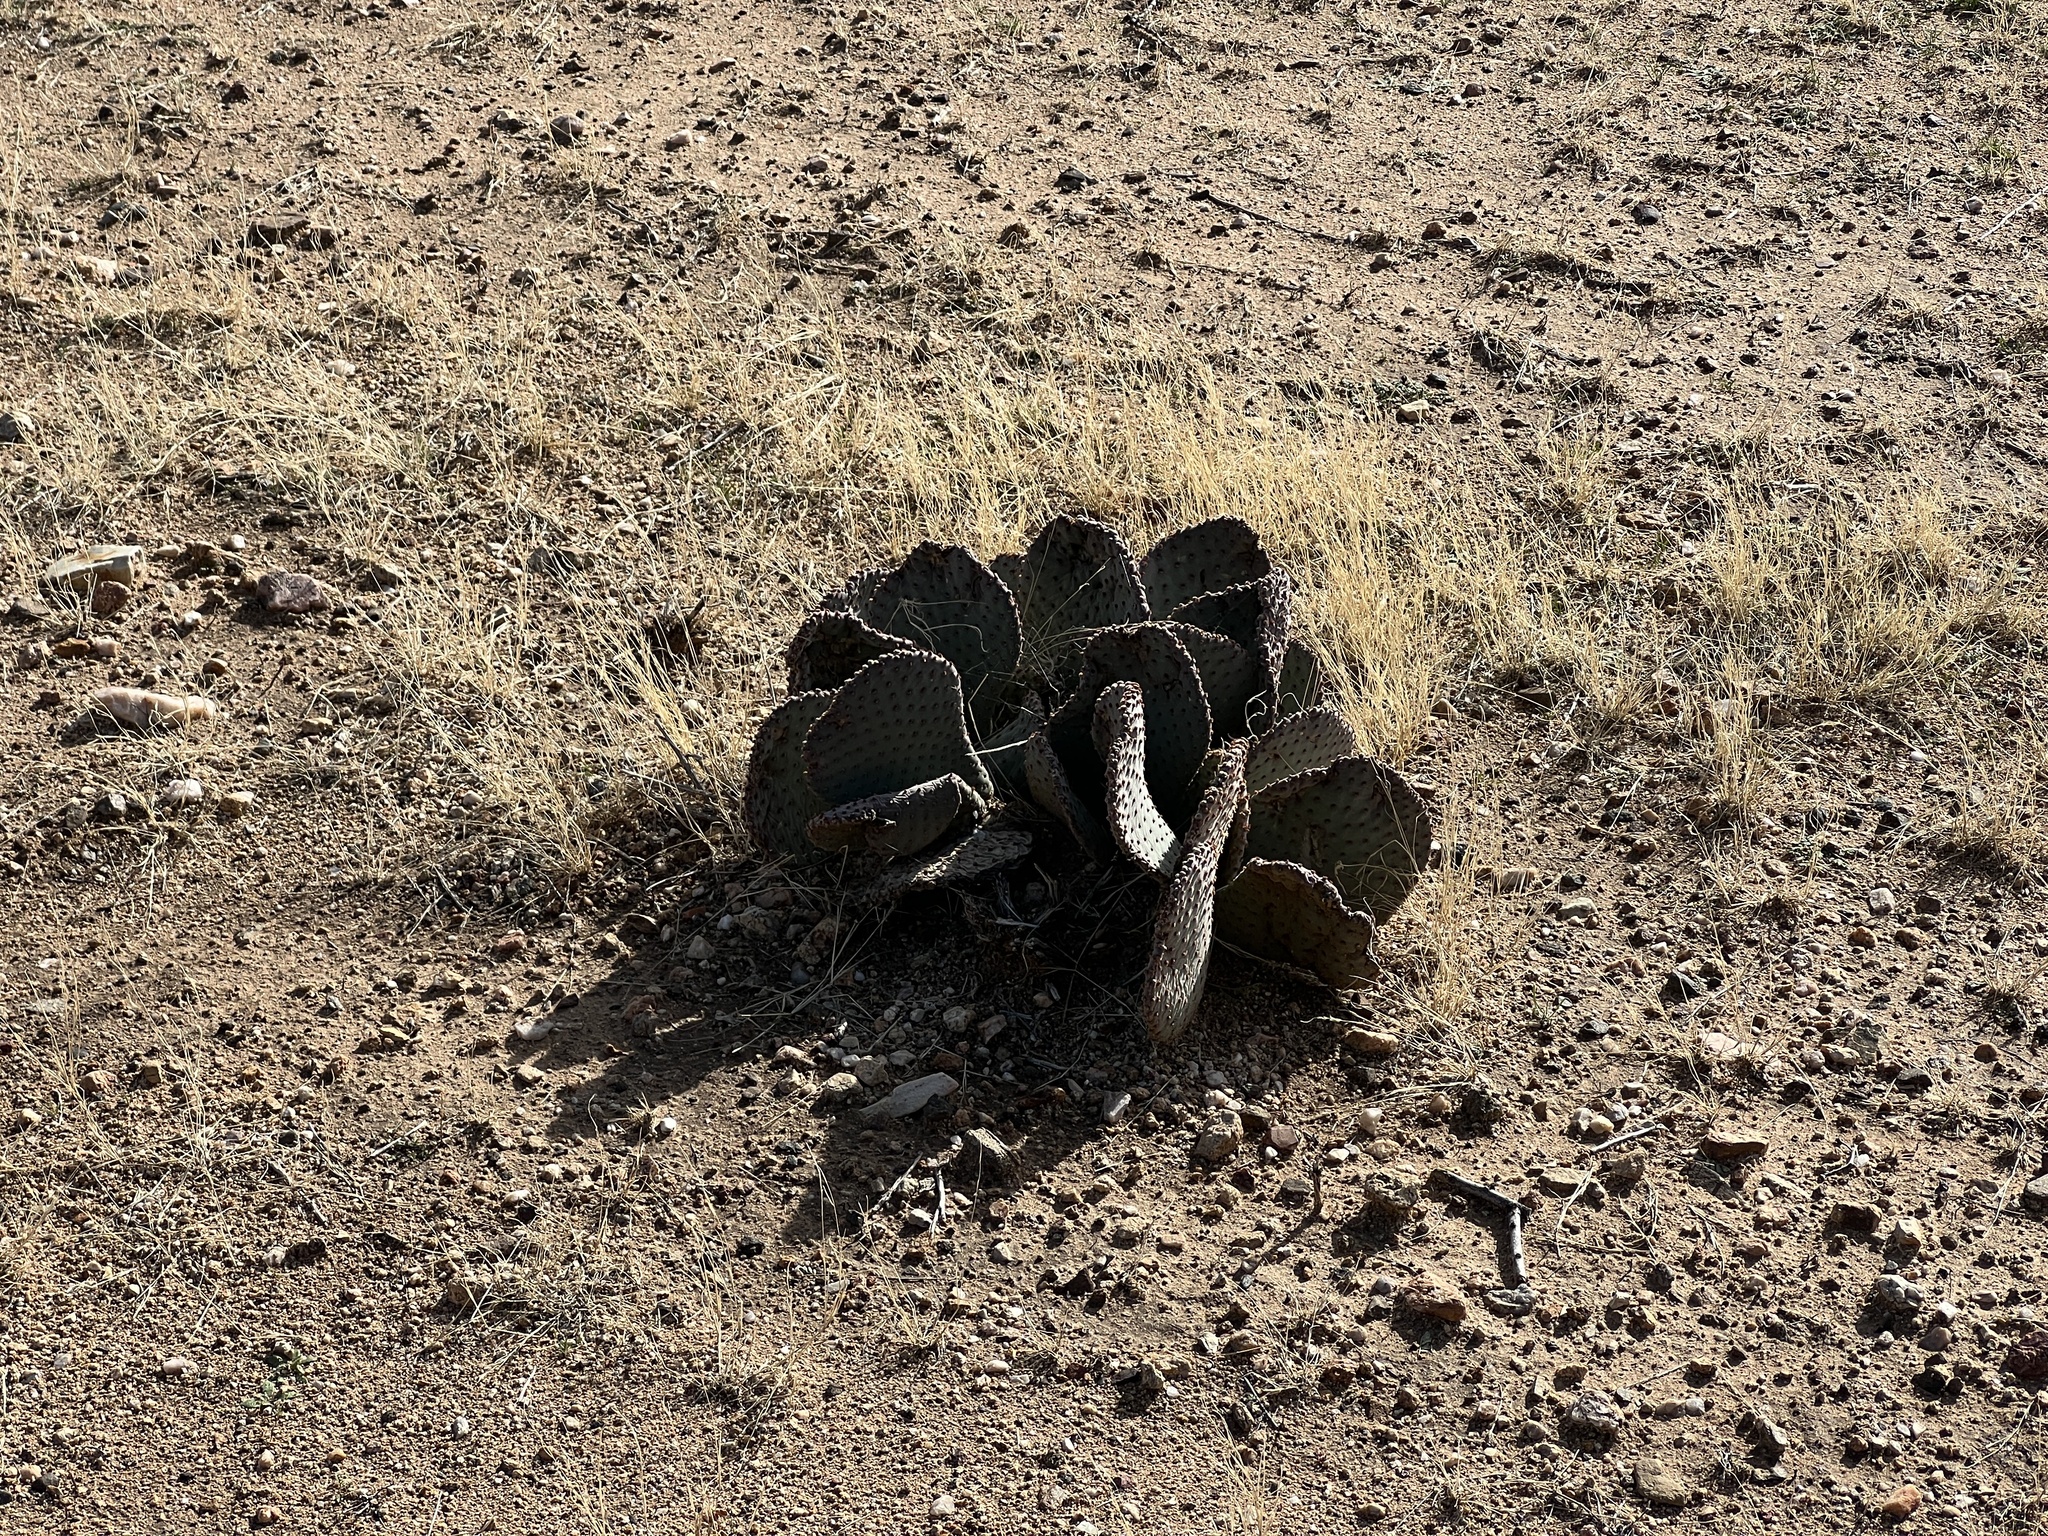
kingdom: Plantae
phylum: Tracheophyta
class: Magnoliopsida
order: Caryophyllales
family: Cactaceae
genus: Opuntia
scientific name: Opuntia basilaris
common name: Beavertail prickly-pear
